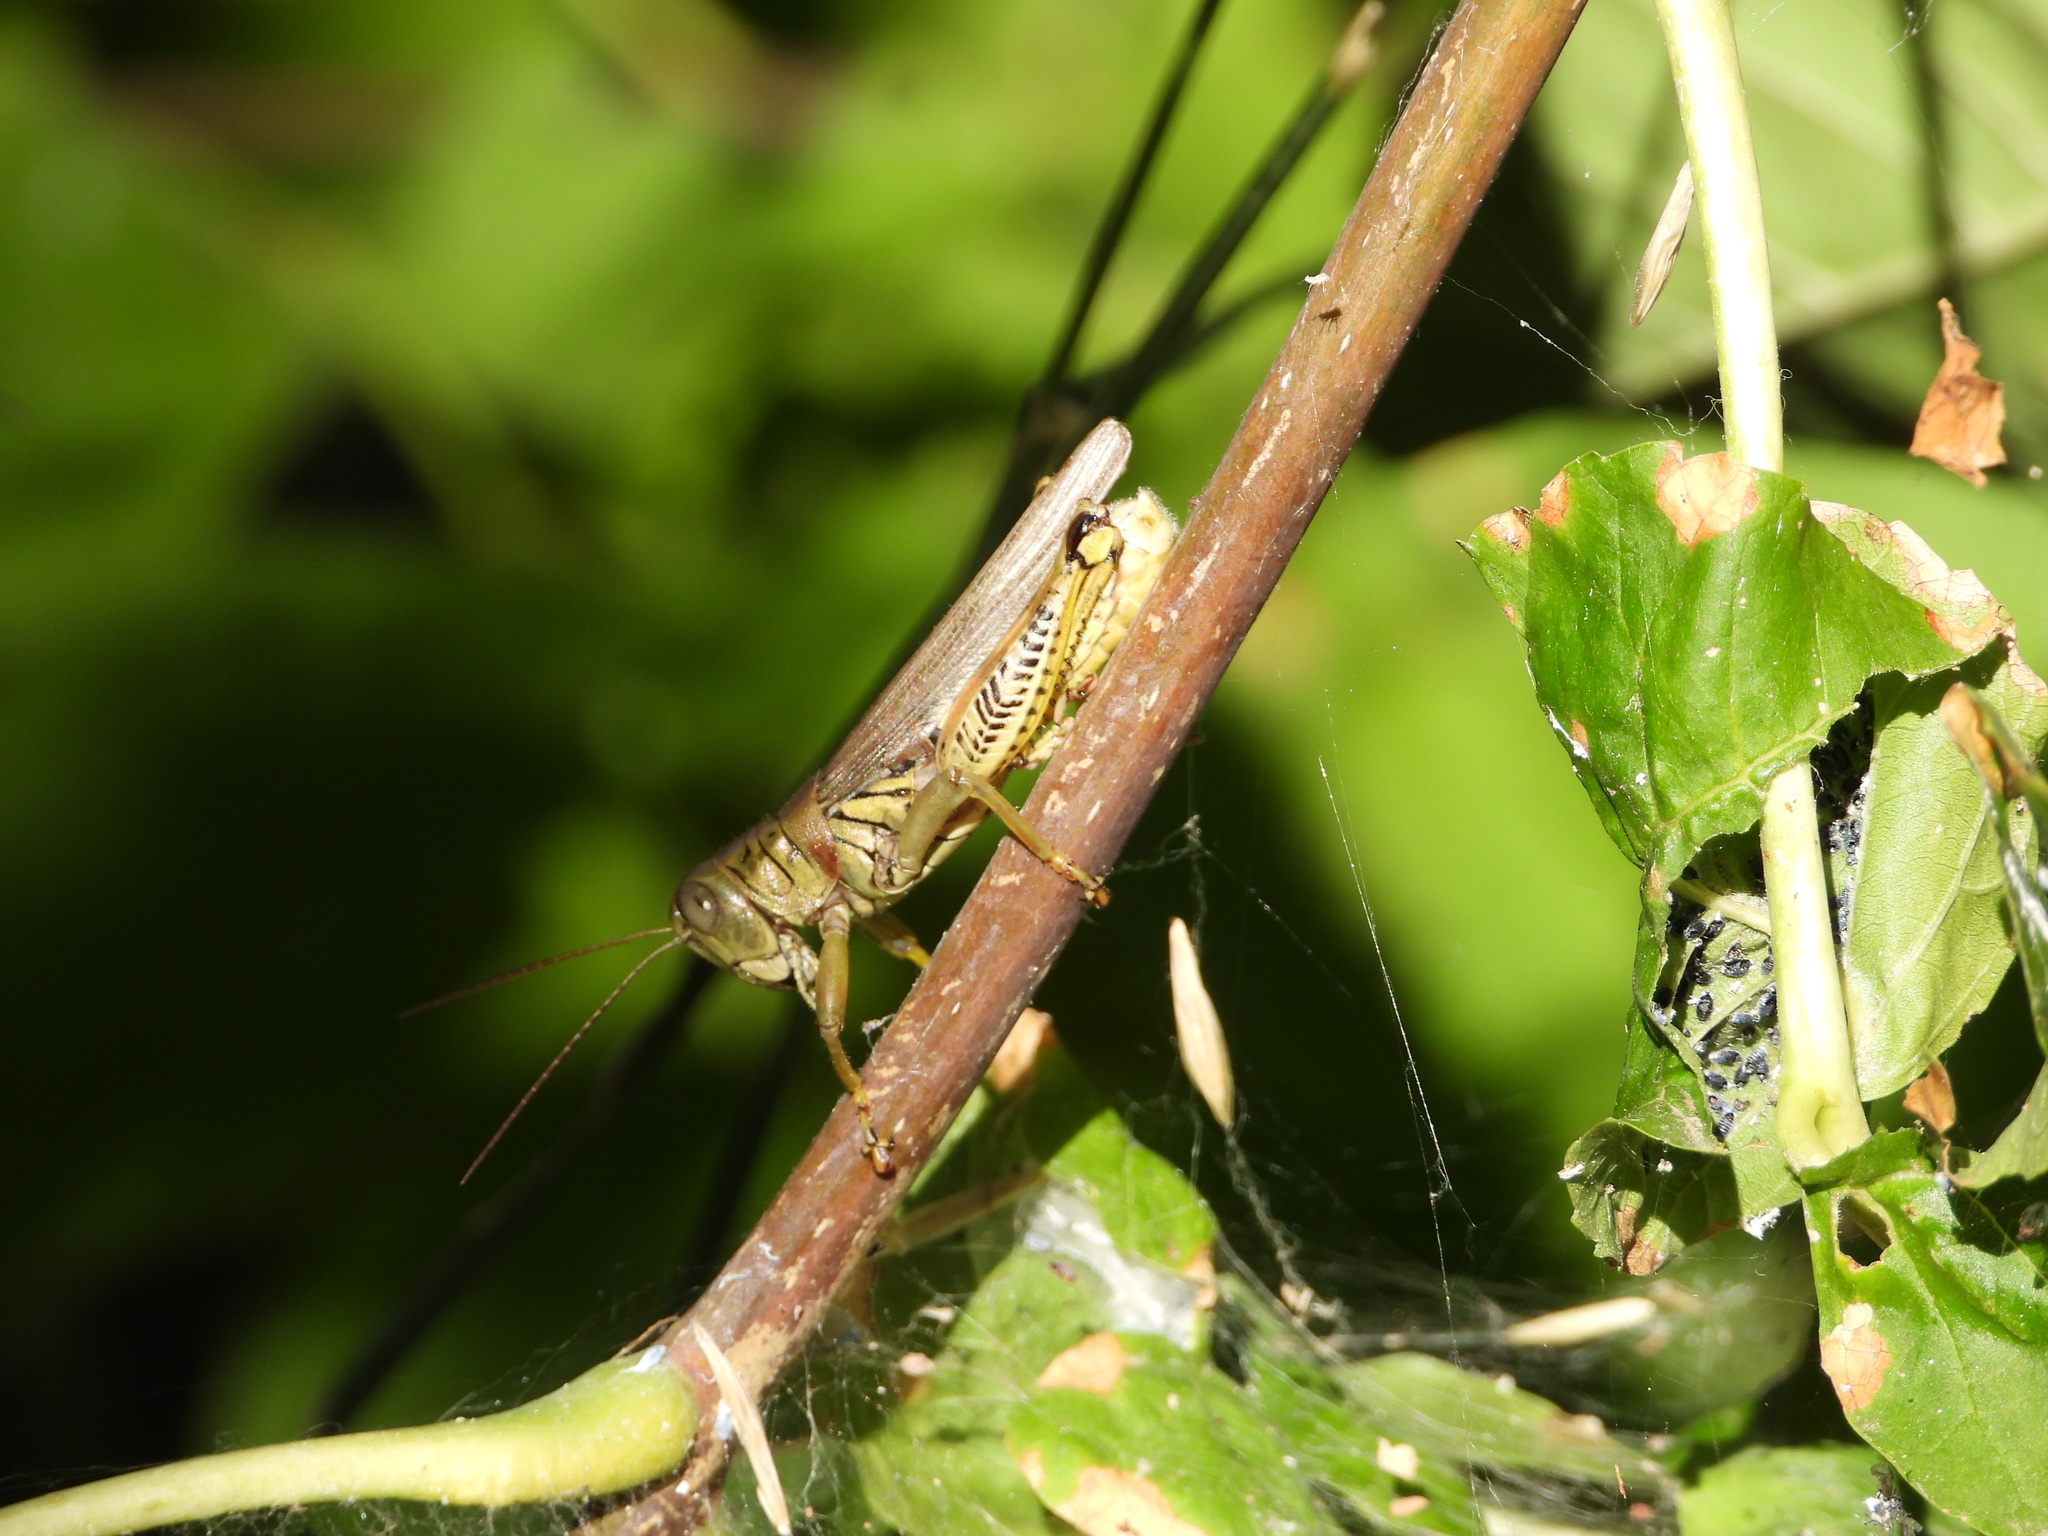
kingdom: Animalia
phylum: Arthropoda
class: Insecta
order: Orthoptera
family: Acrididae
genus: Melanoplus
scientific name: Melanoplus differentialis
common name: Differential grasshopper
